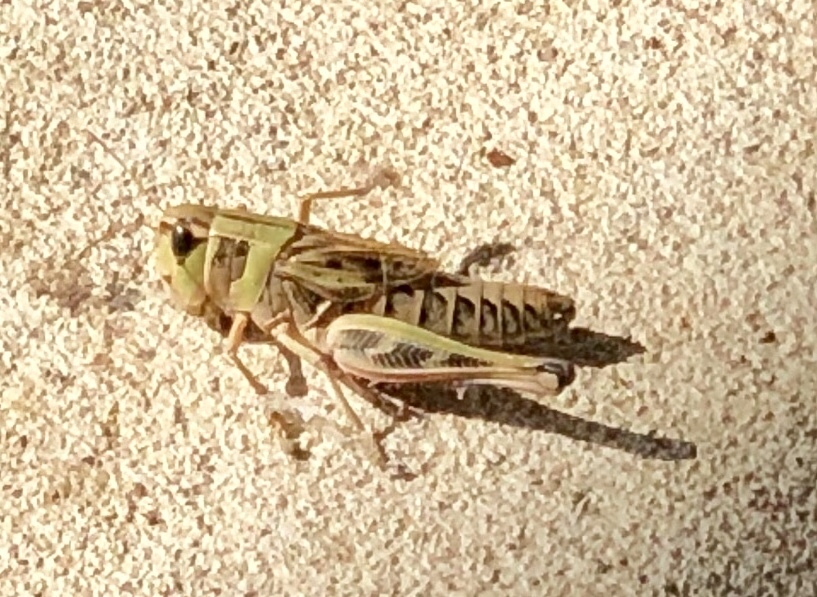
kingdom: Animalia
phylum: Arthropoda
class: Insecta
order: Orthoptera
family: Acrididae
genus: Boopedon
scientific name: Boopedon gracile
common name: Graceful range grasshopper
